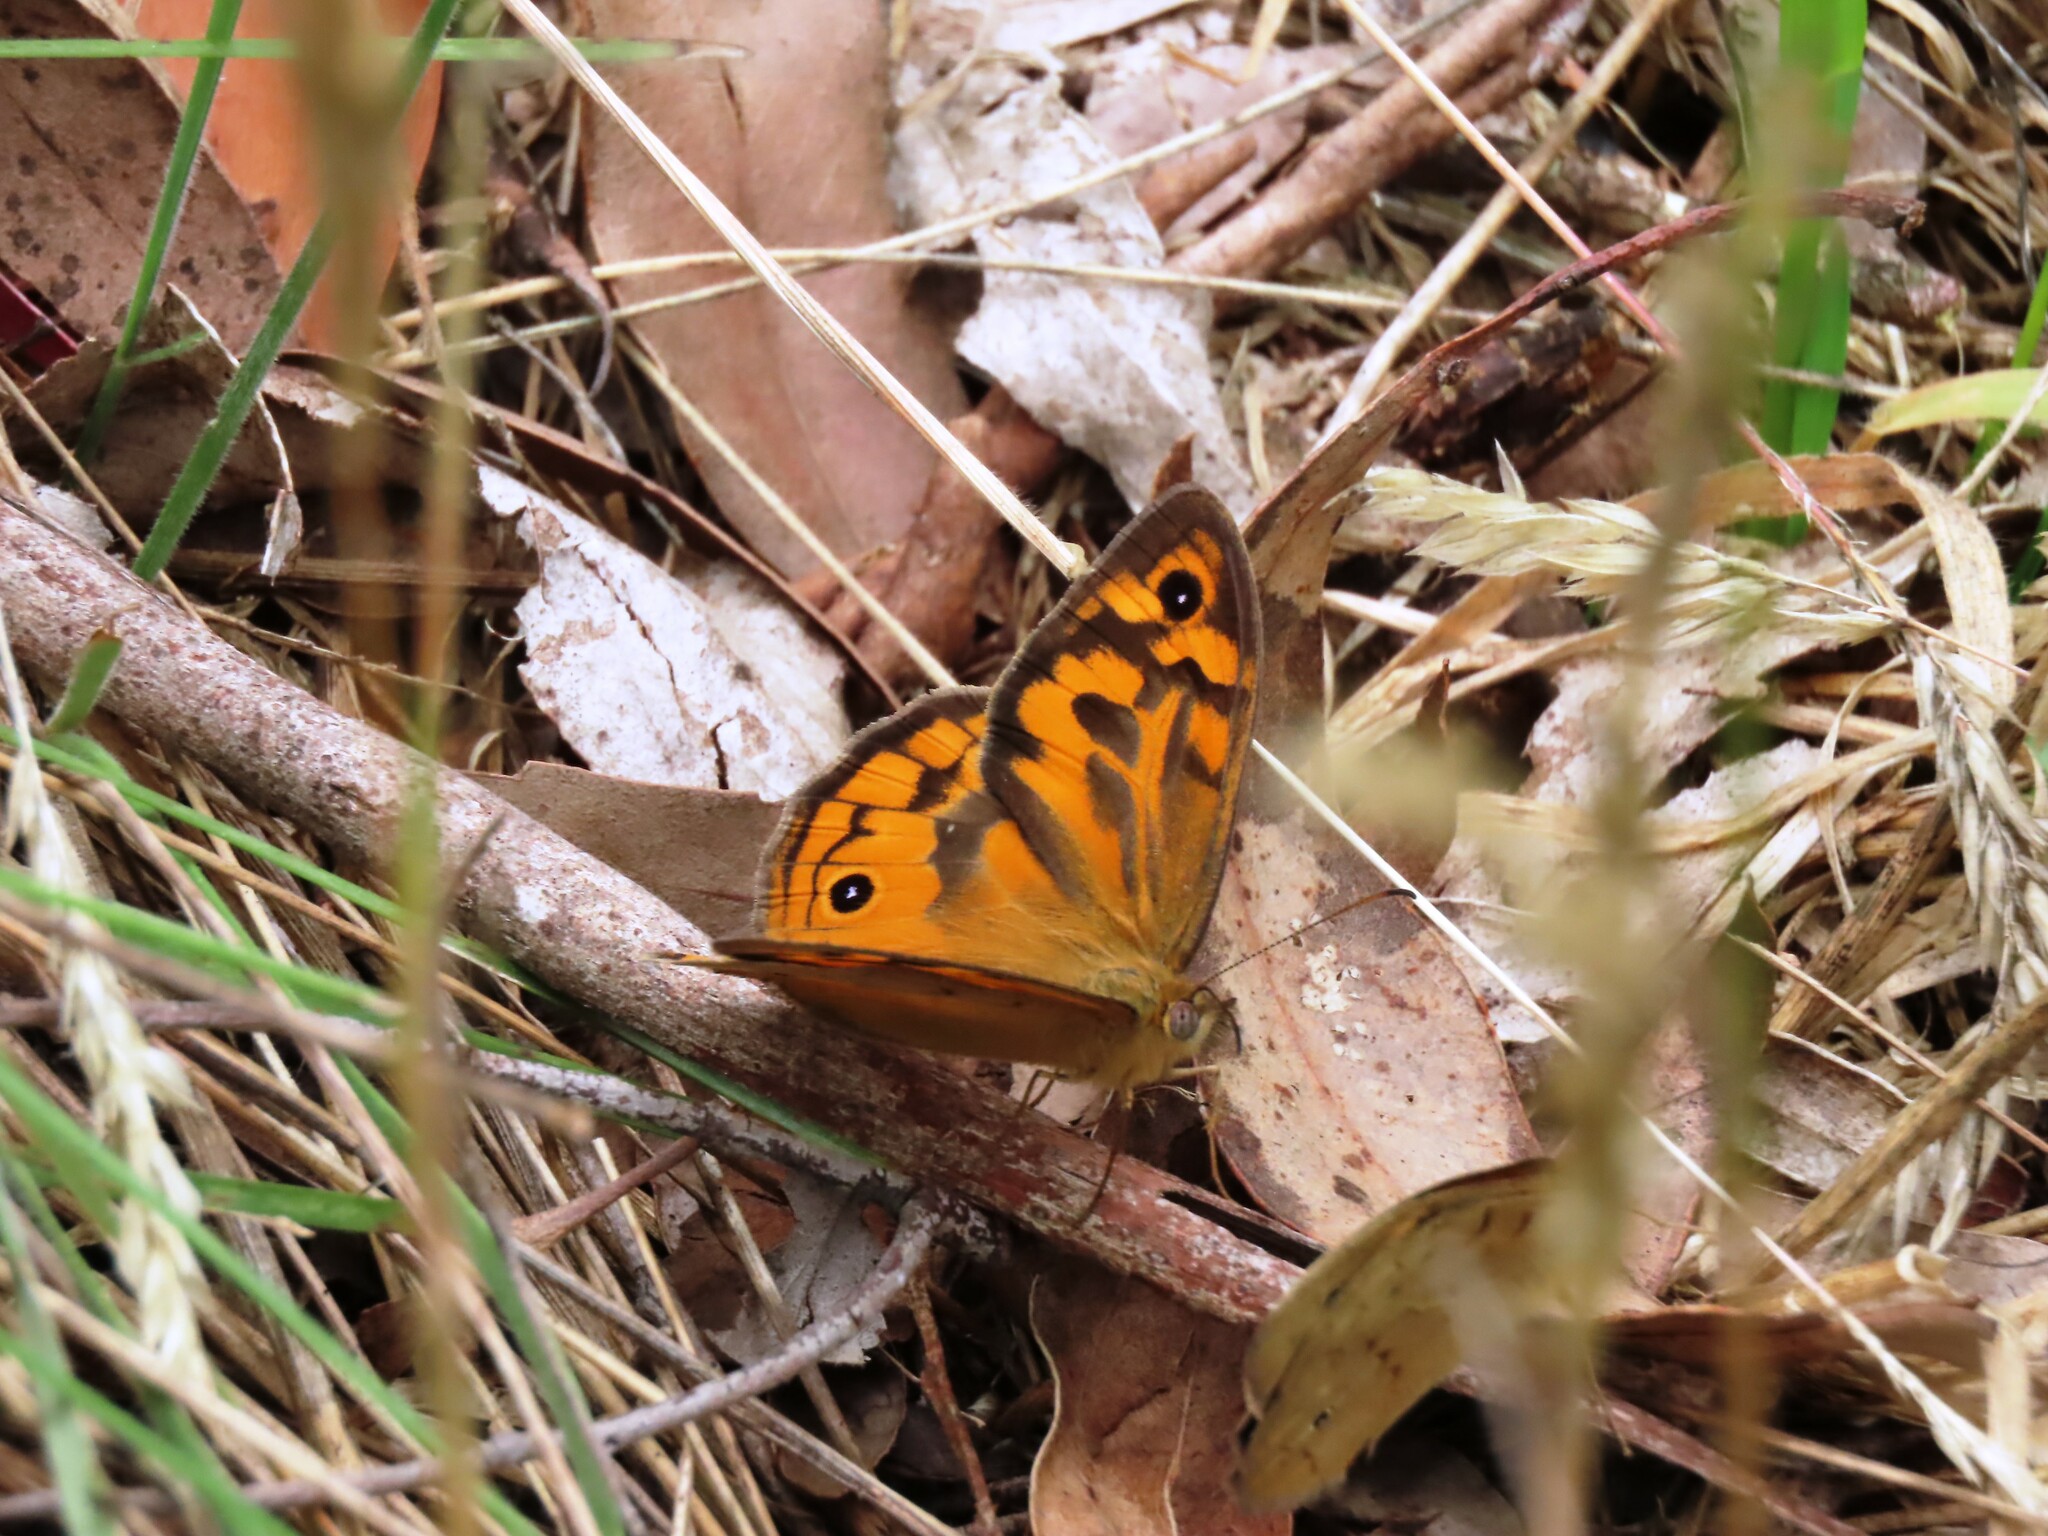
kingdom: Animalia
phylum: Arthropoda
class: Insecta
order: Lepidoptera
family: Nymphalidae
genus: Heteronympha
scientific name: Heteronympha merope
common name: Common brown
